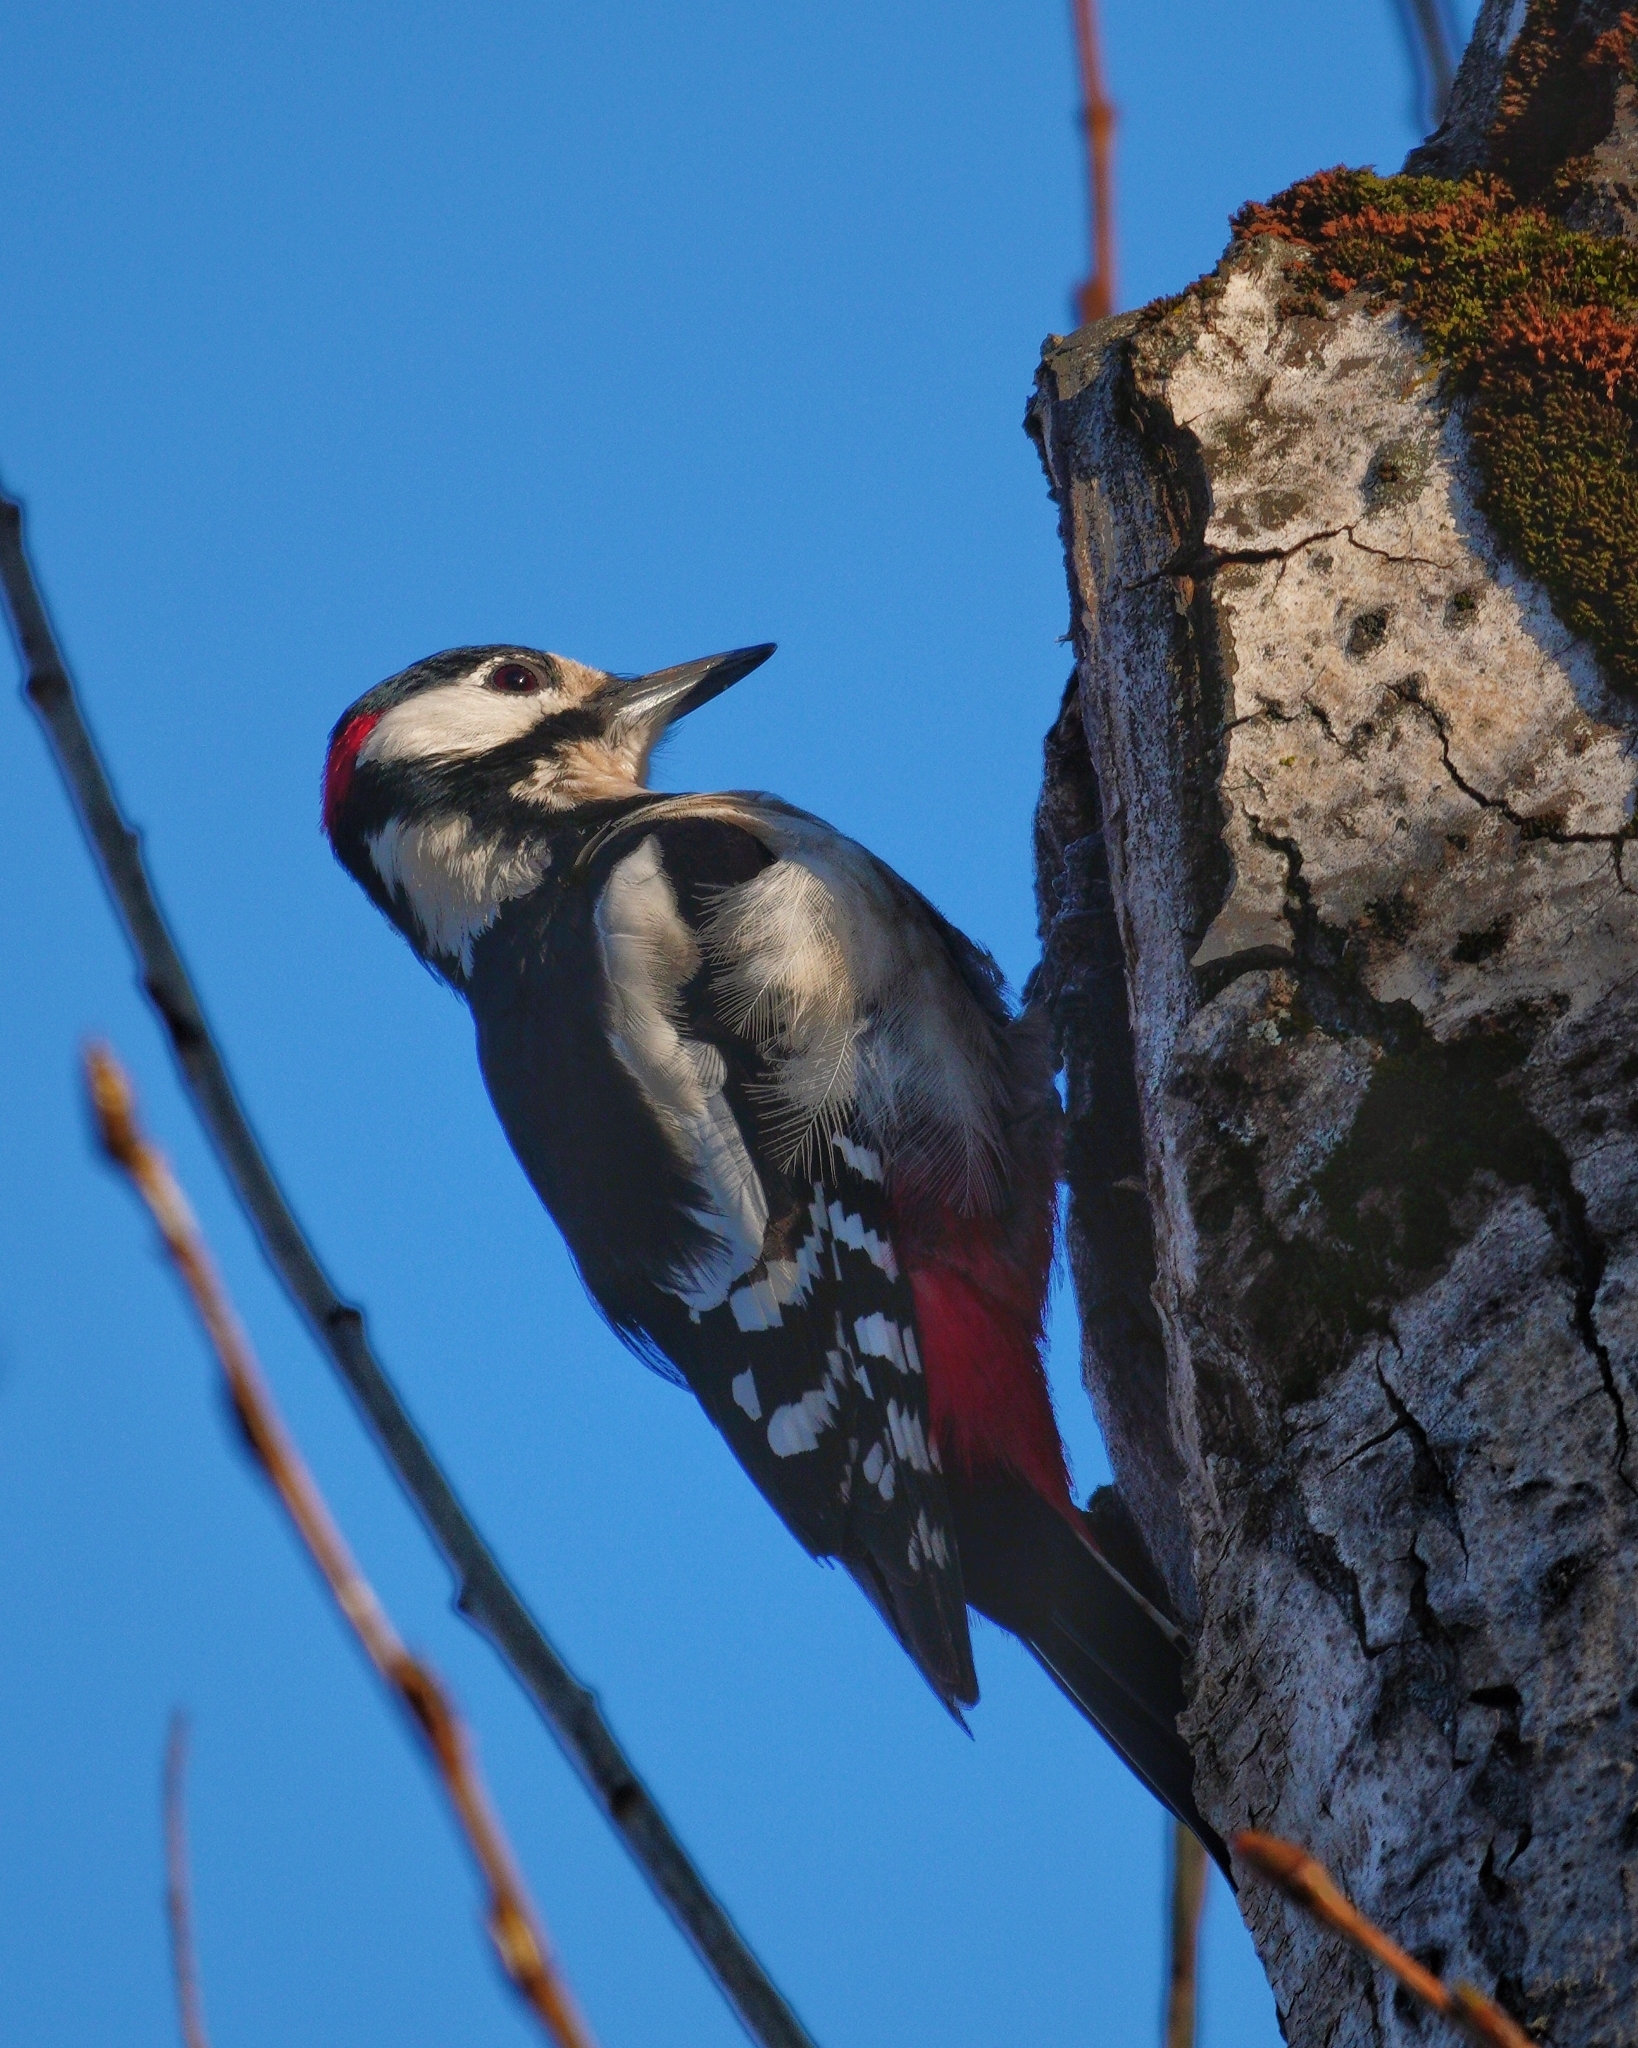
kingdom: Animalia
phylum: Chordata
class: Aves
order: Piciformes
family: Picidae
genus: Dendrocopos
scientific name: Dendrocopos major
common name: Great spotted woodpecker
